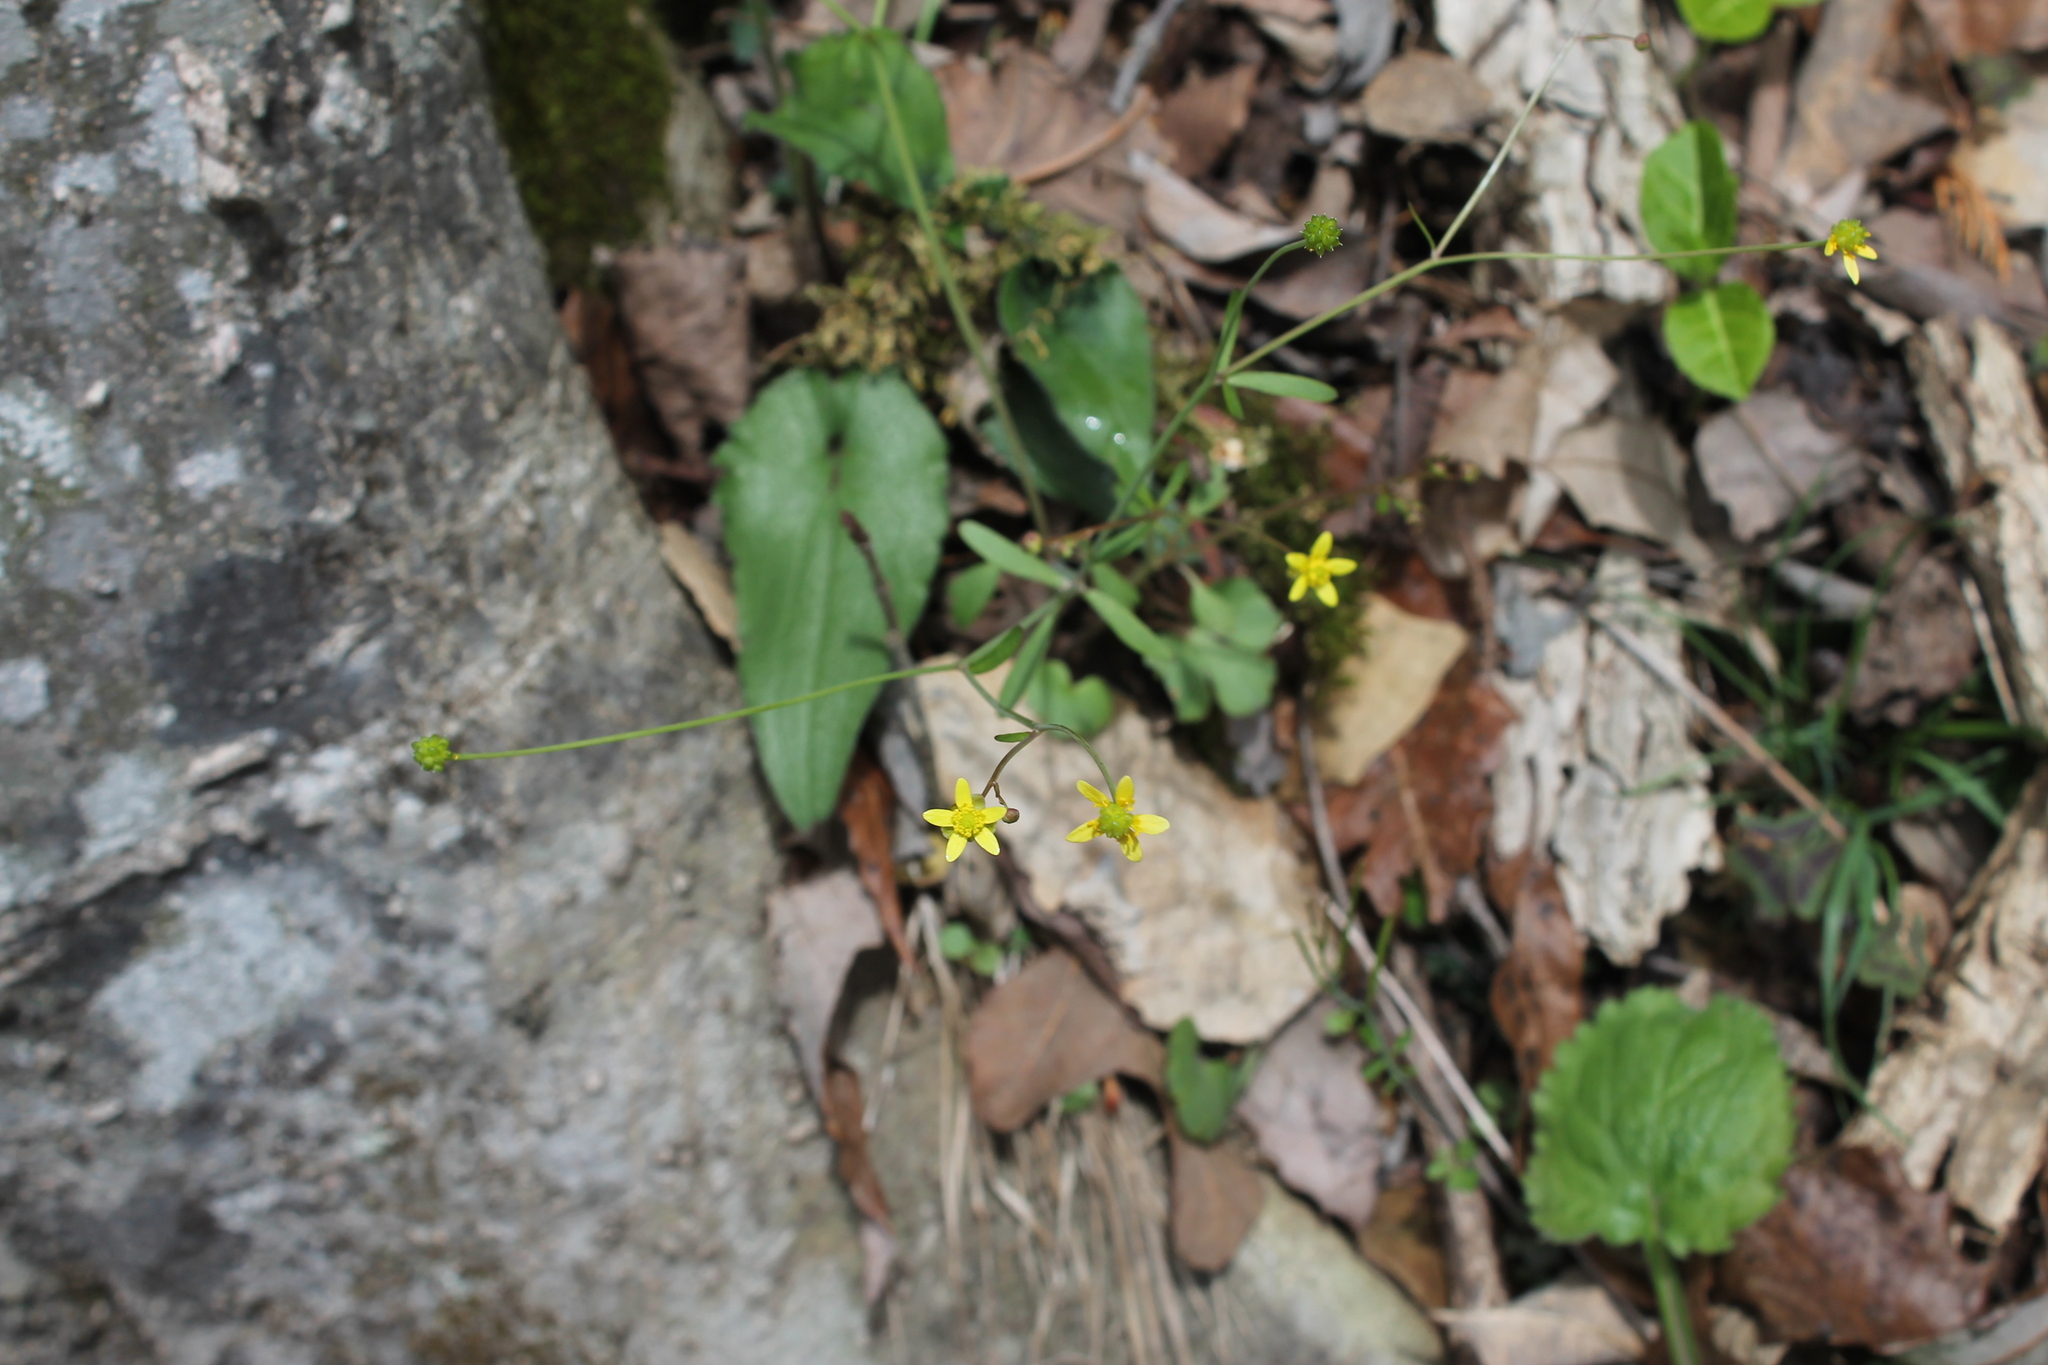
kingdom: Plantae
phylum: Tracheophyta
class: Magnoliopsida
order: Ranunculales
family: Ranunculaceae
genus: Ranunculus
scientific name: Ranunculus harveyi
